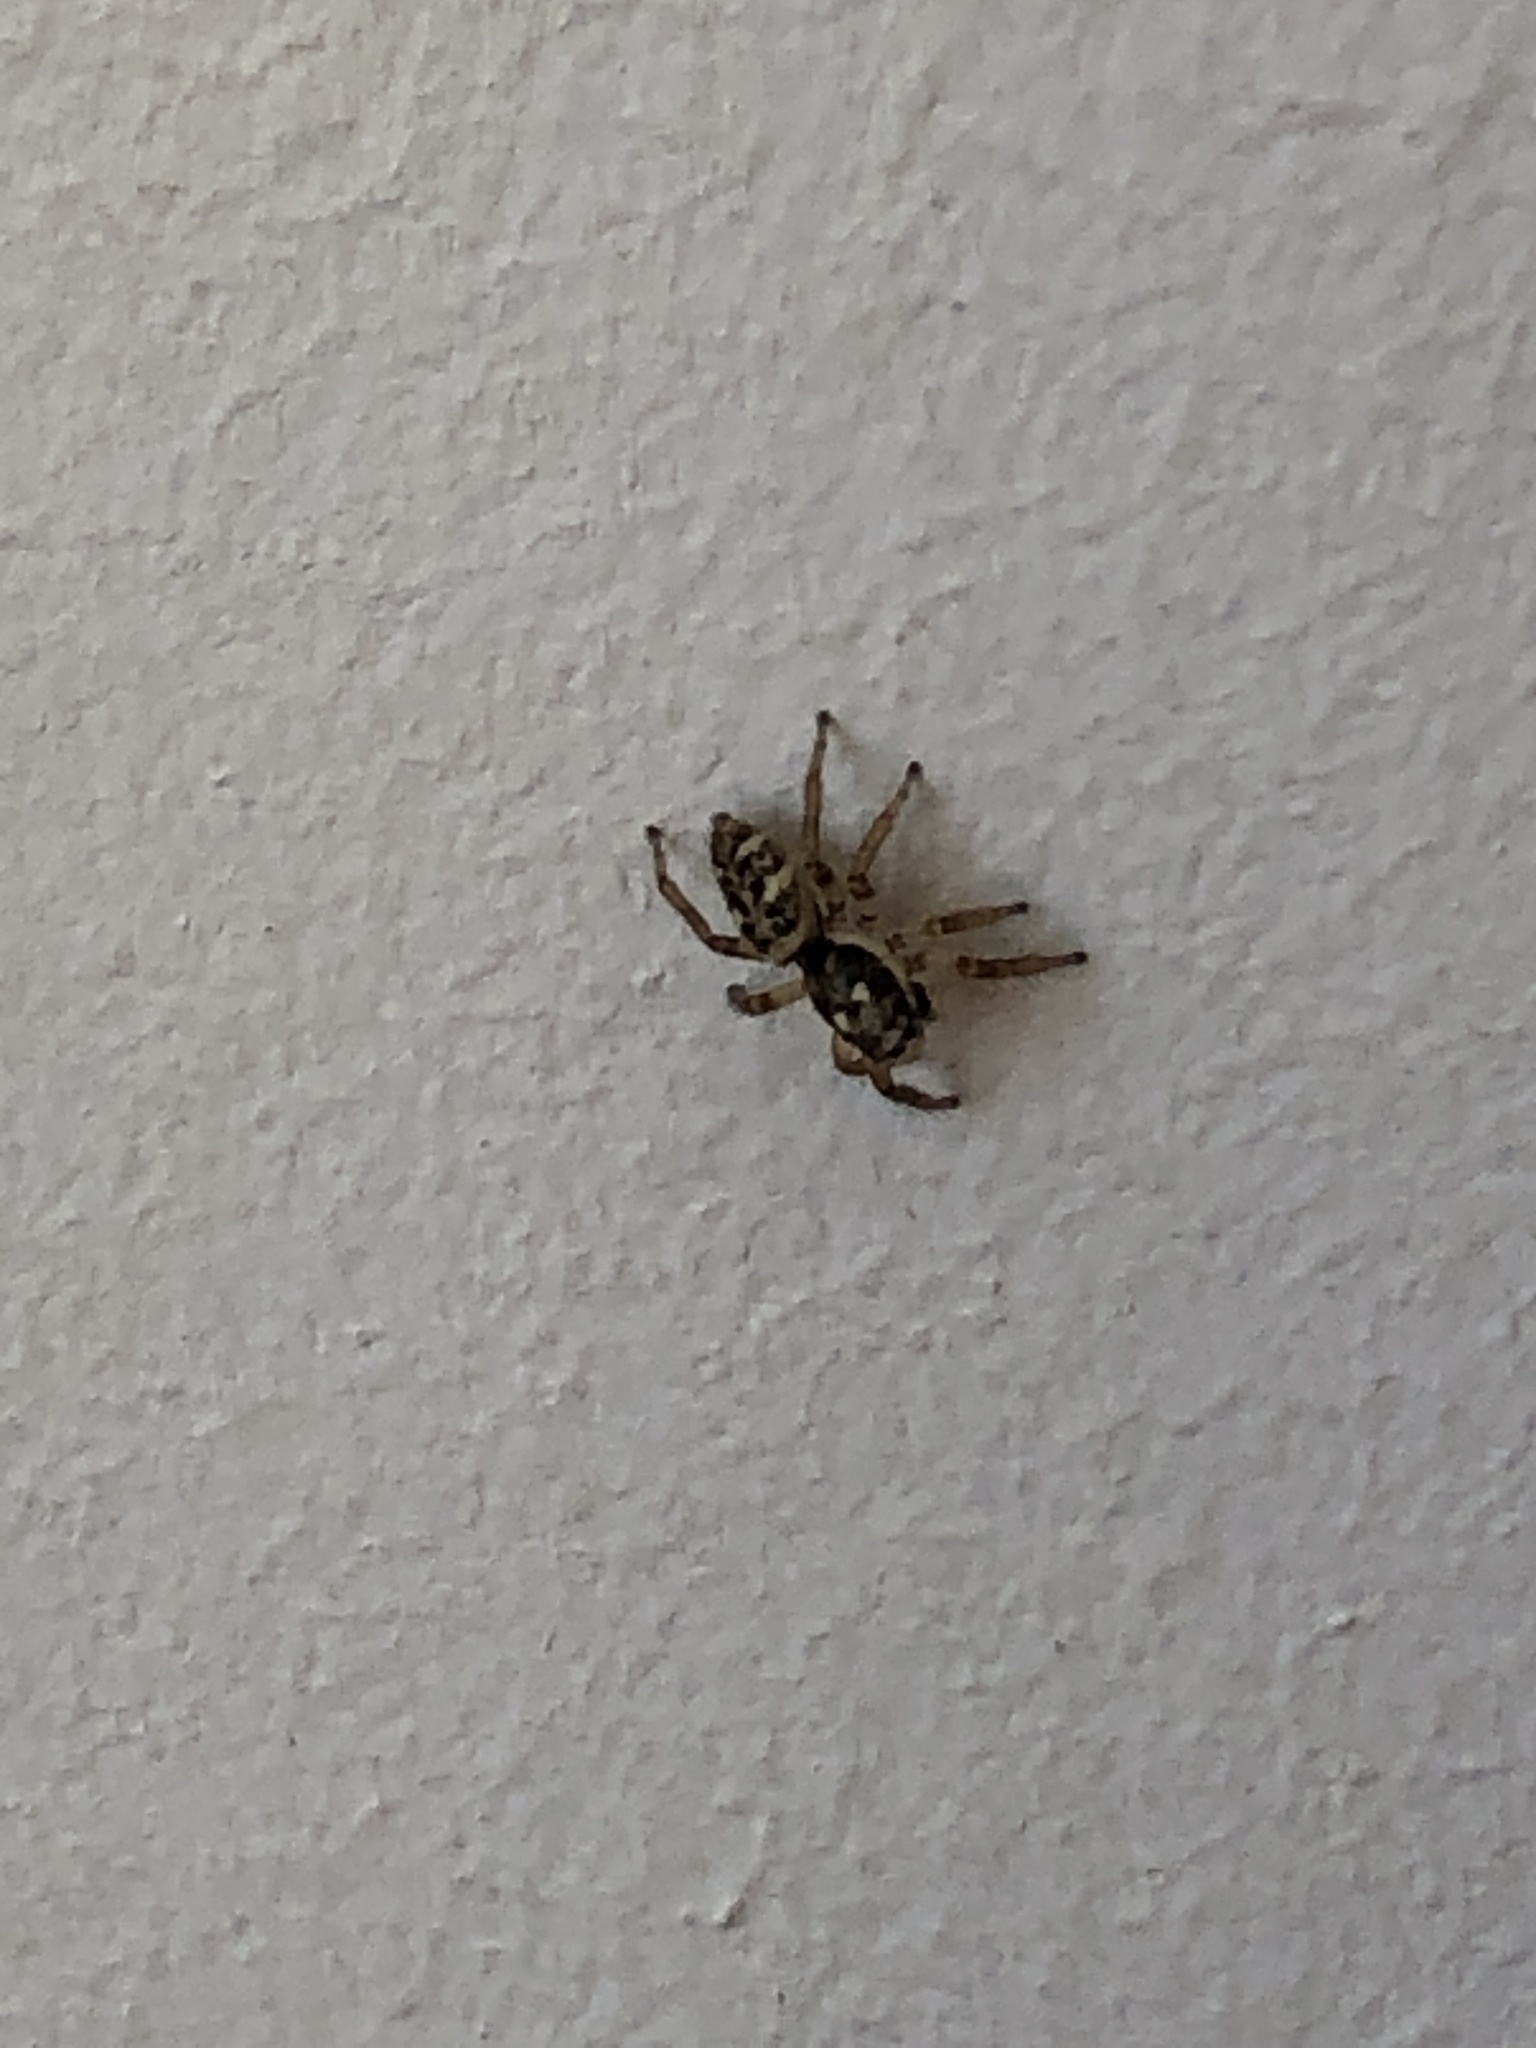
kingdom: Animalia
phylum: Arthropoda
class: Arachnida
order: Araneae
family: Salticidae
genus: Salticus
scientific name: Salticus scenicus
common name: Zebra jumper
